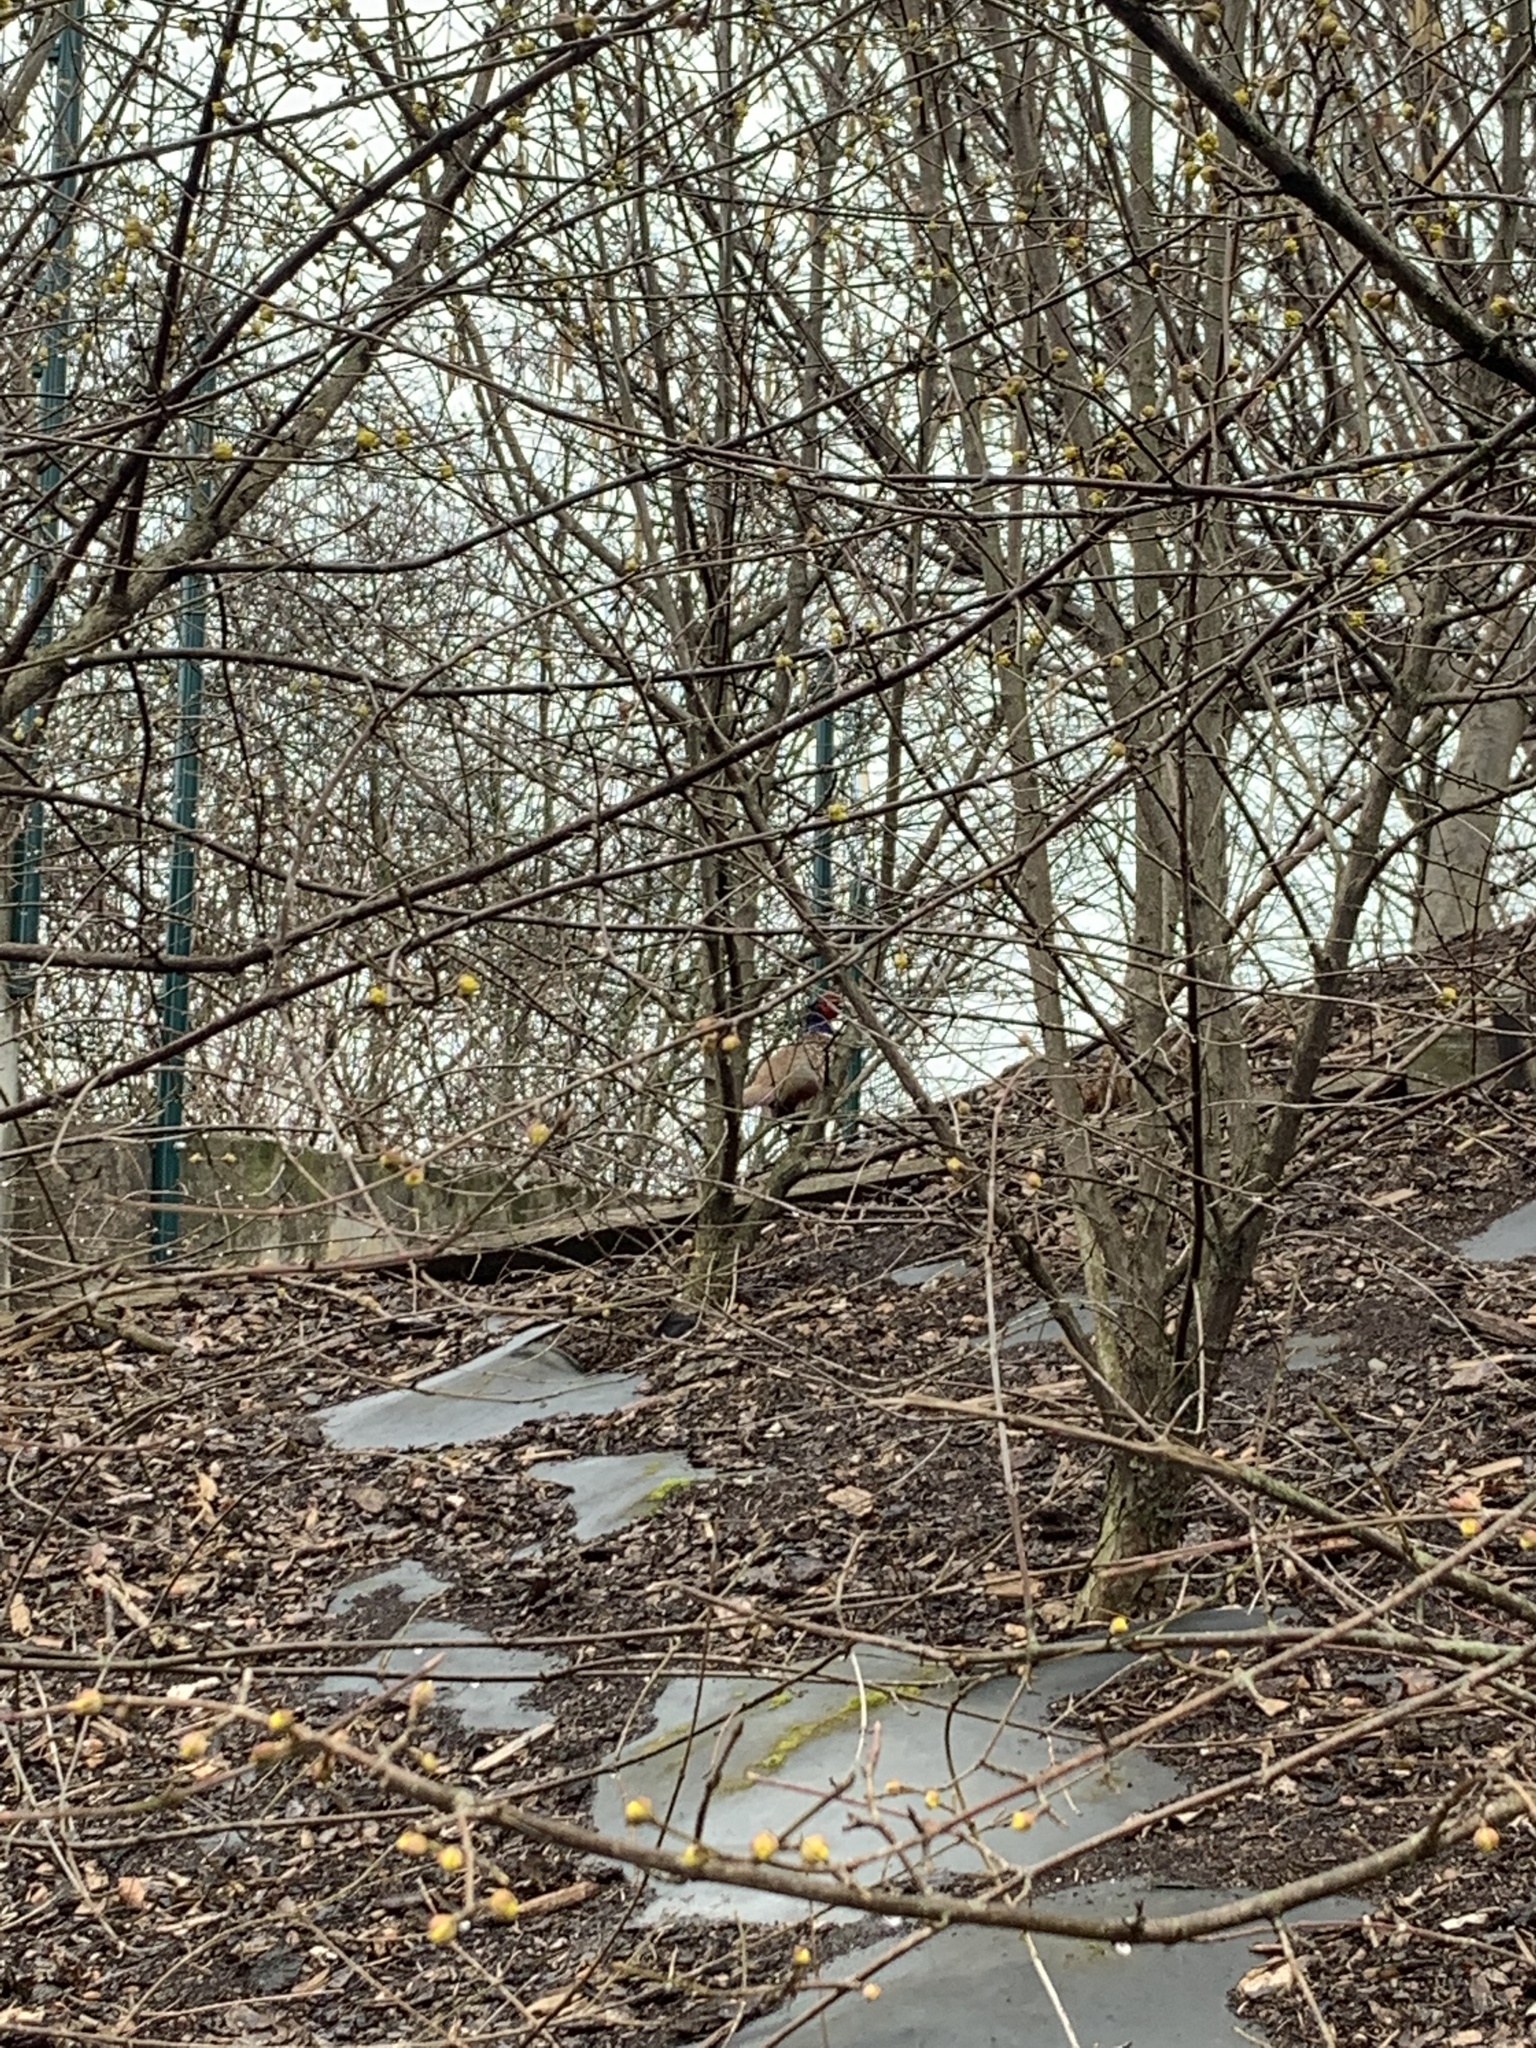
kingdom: Animalia
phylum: Chordata
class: Aves
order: Galliformes
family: Phasianidae
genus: Phasianus
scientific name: Phasianus colchicus
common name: Common pheasant
